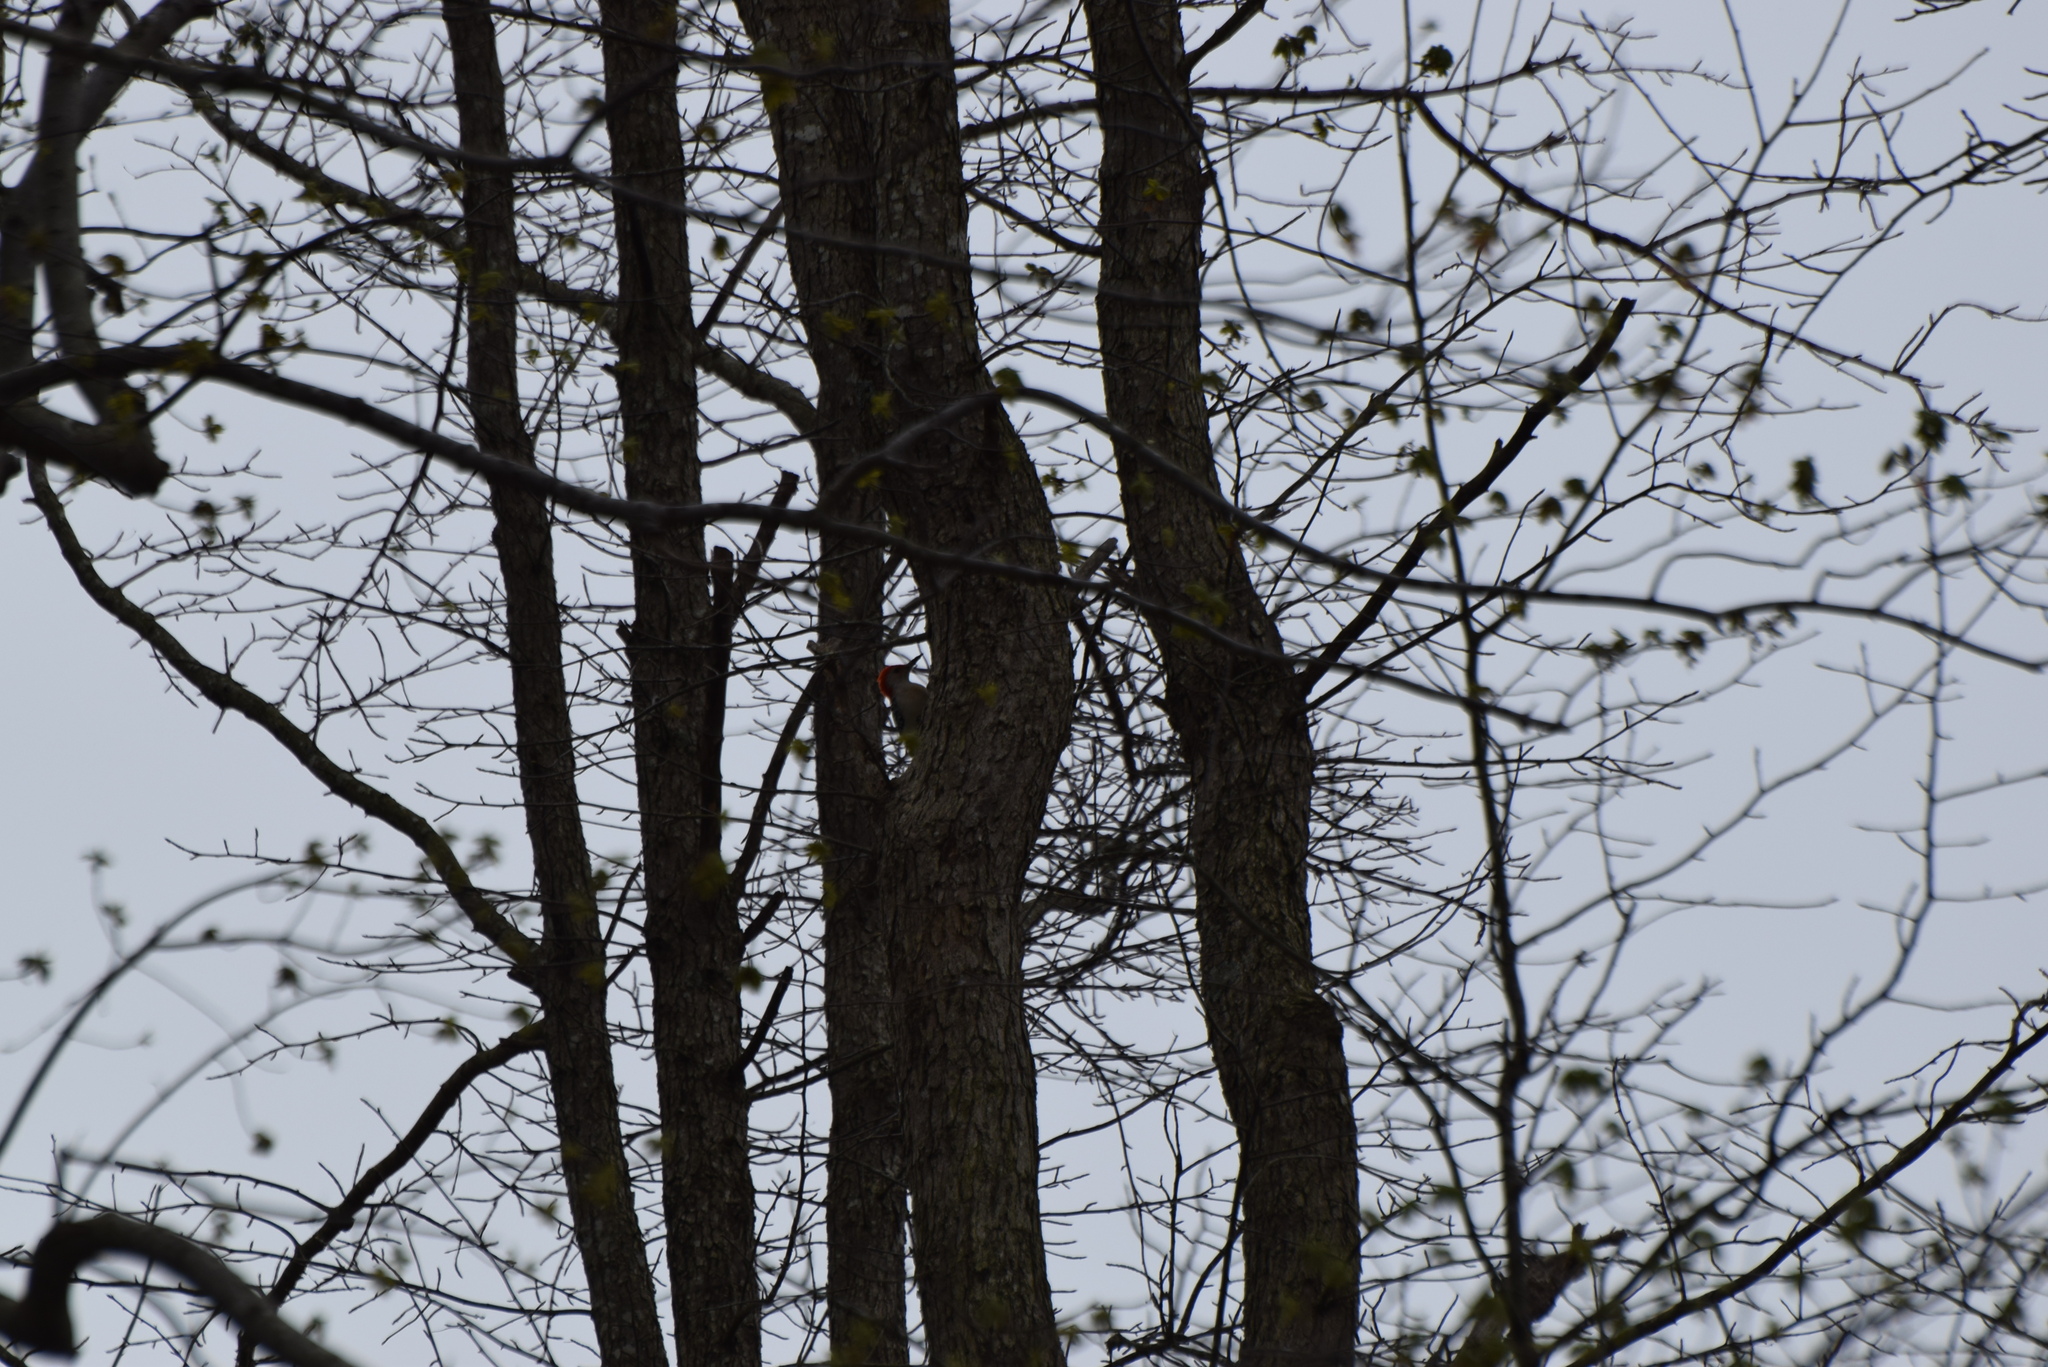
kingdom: Animalia
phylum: Chordata
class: Aves
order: Piciformes
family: Picidae
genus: Melanerpes
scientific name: Melanerpes carolinus
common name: Red-bellied woodpecker
